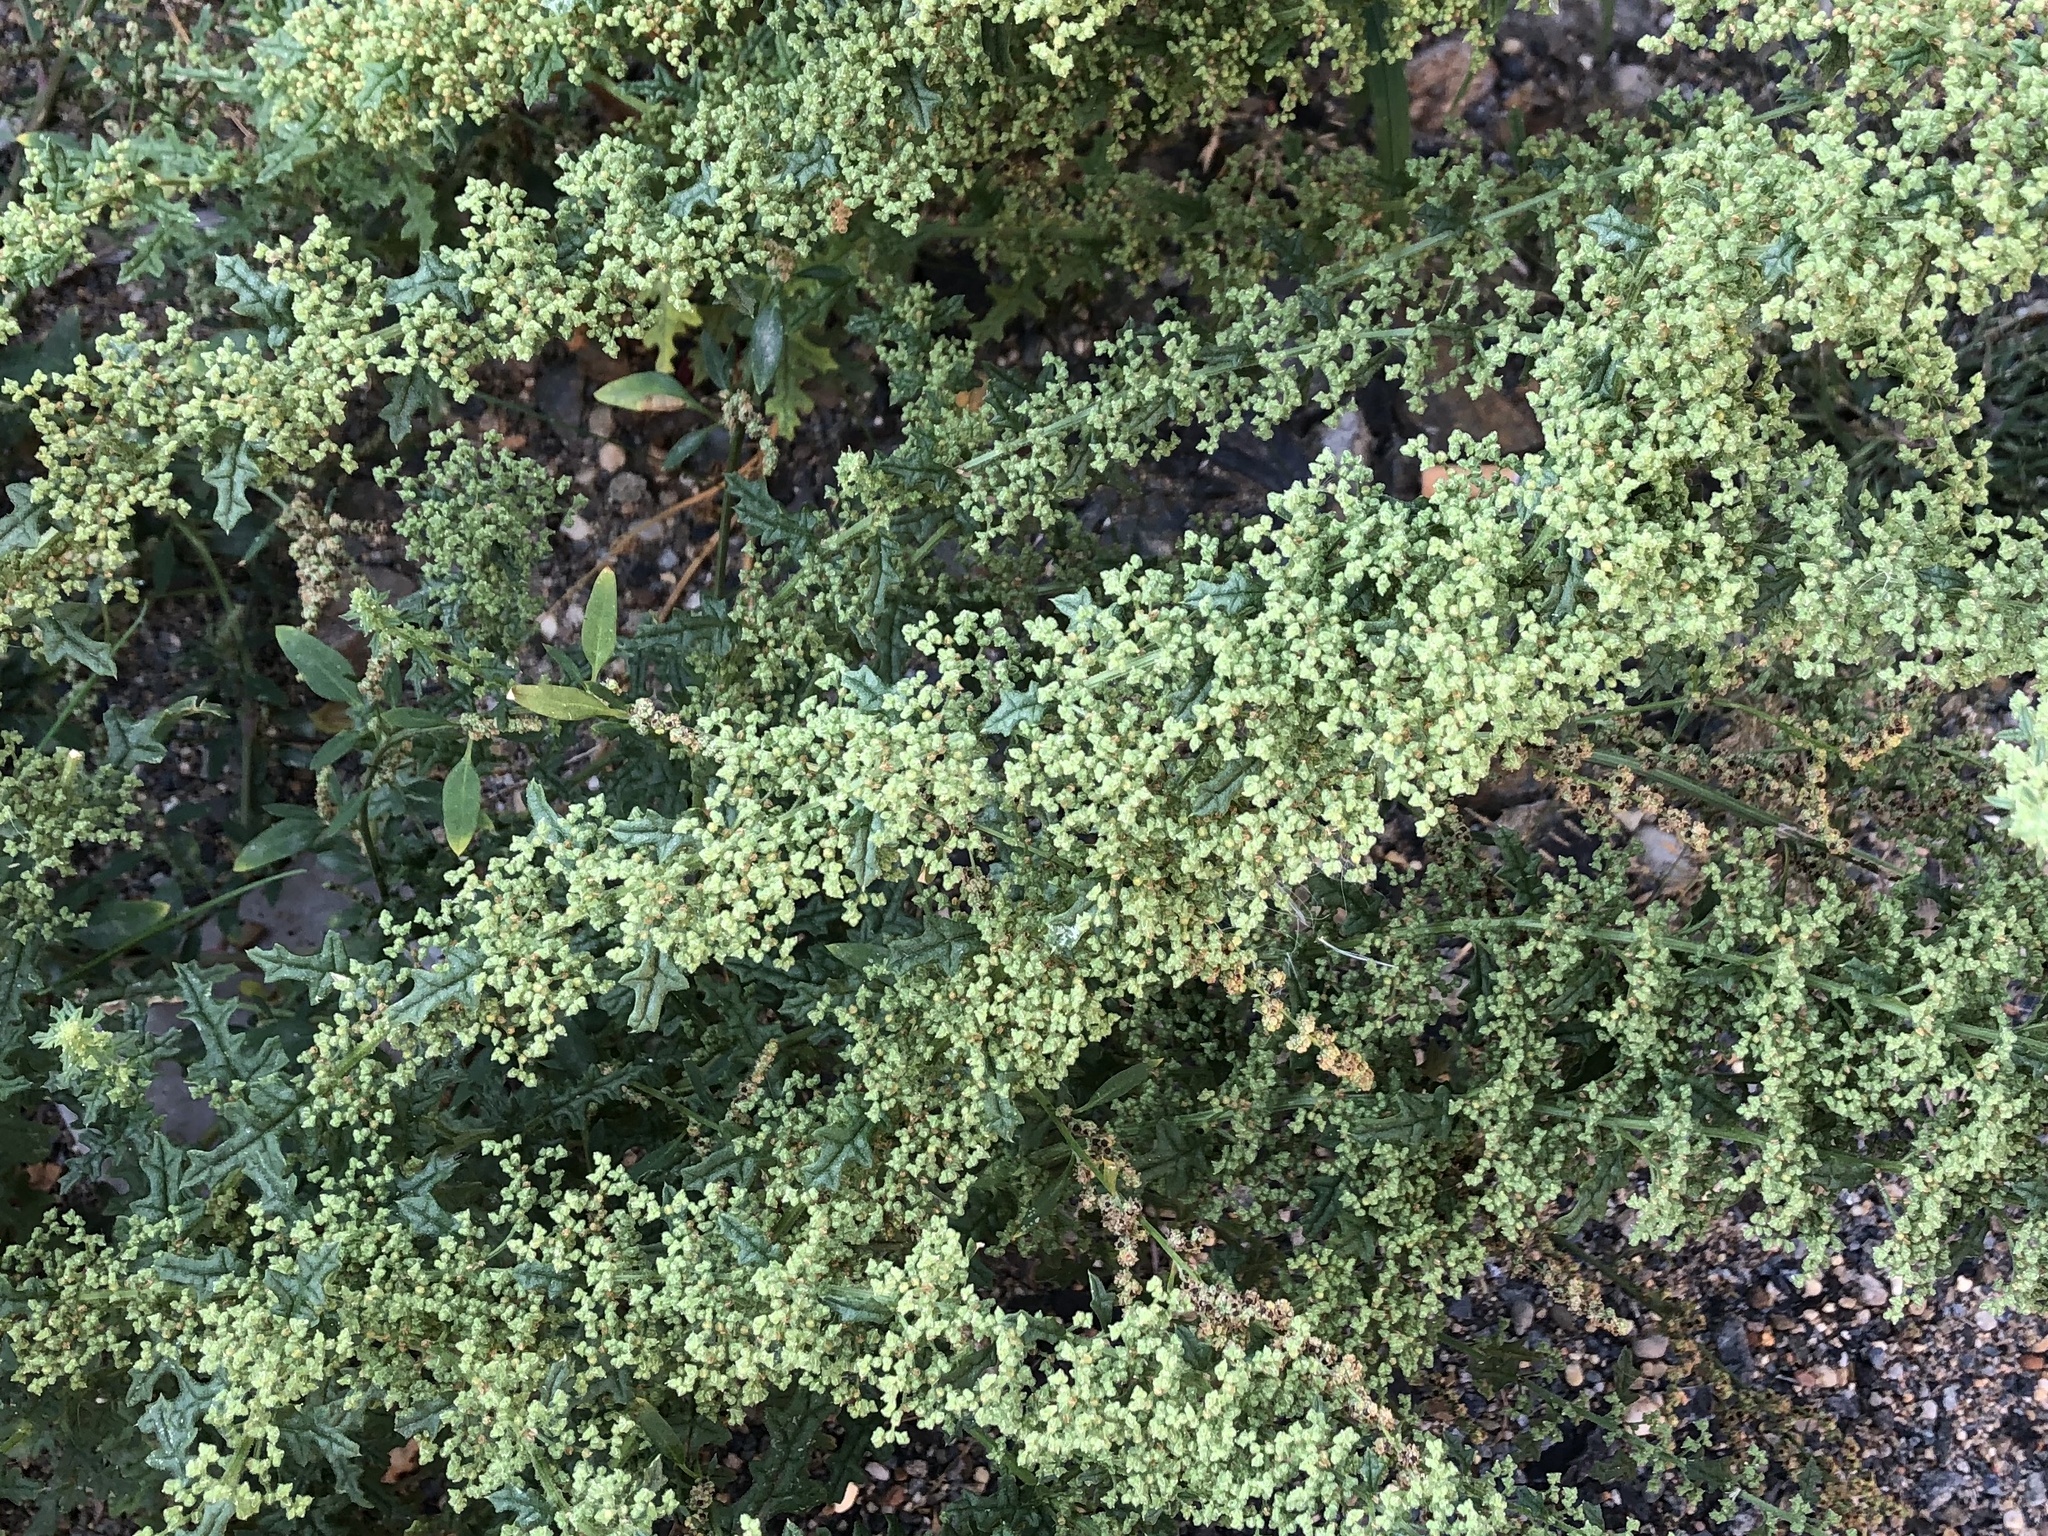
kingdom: Plantae
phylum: Tracheophyta
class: Magnoliopsida
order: Caryophyllales
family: Amaranthaceae
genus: Dysphania
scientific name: Dysphania botrys
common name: Feather-geranium
